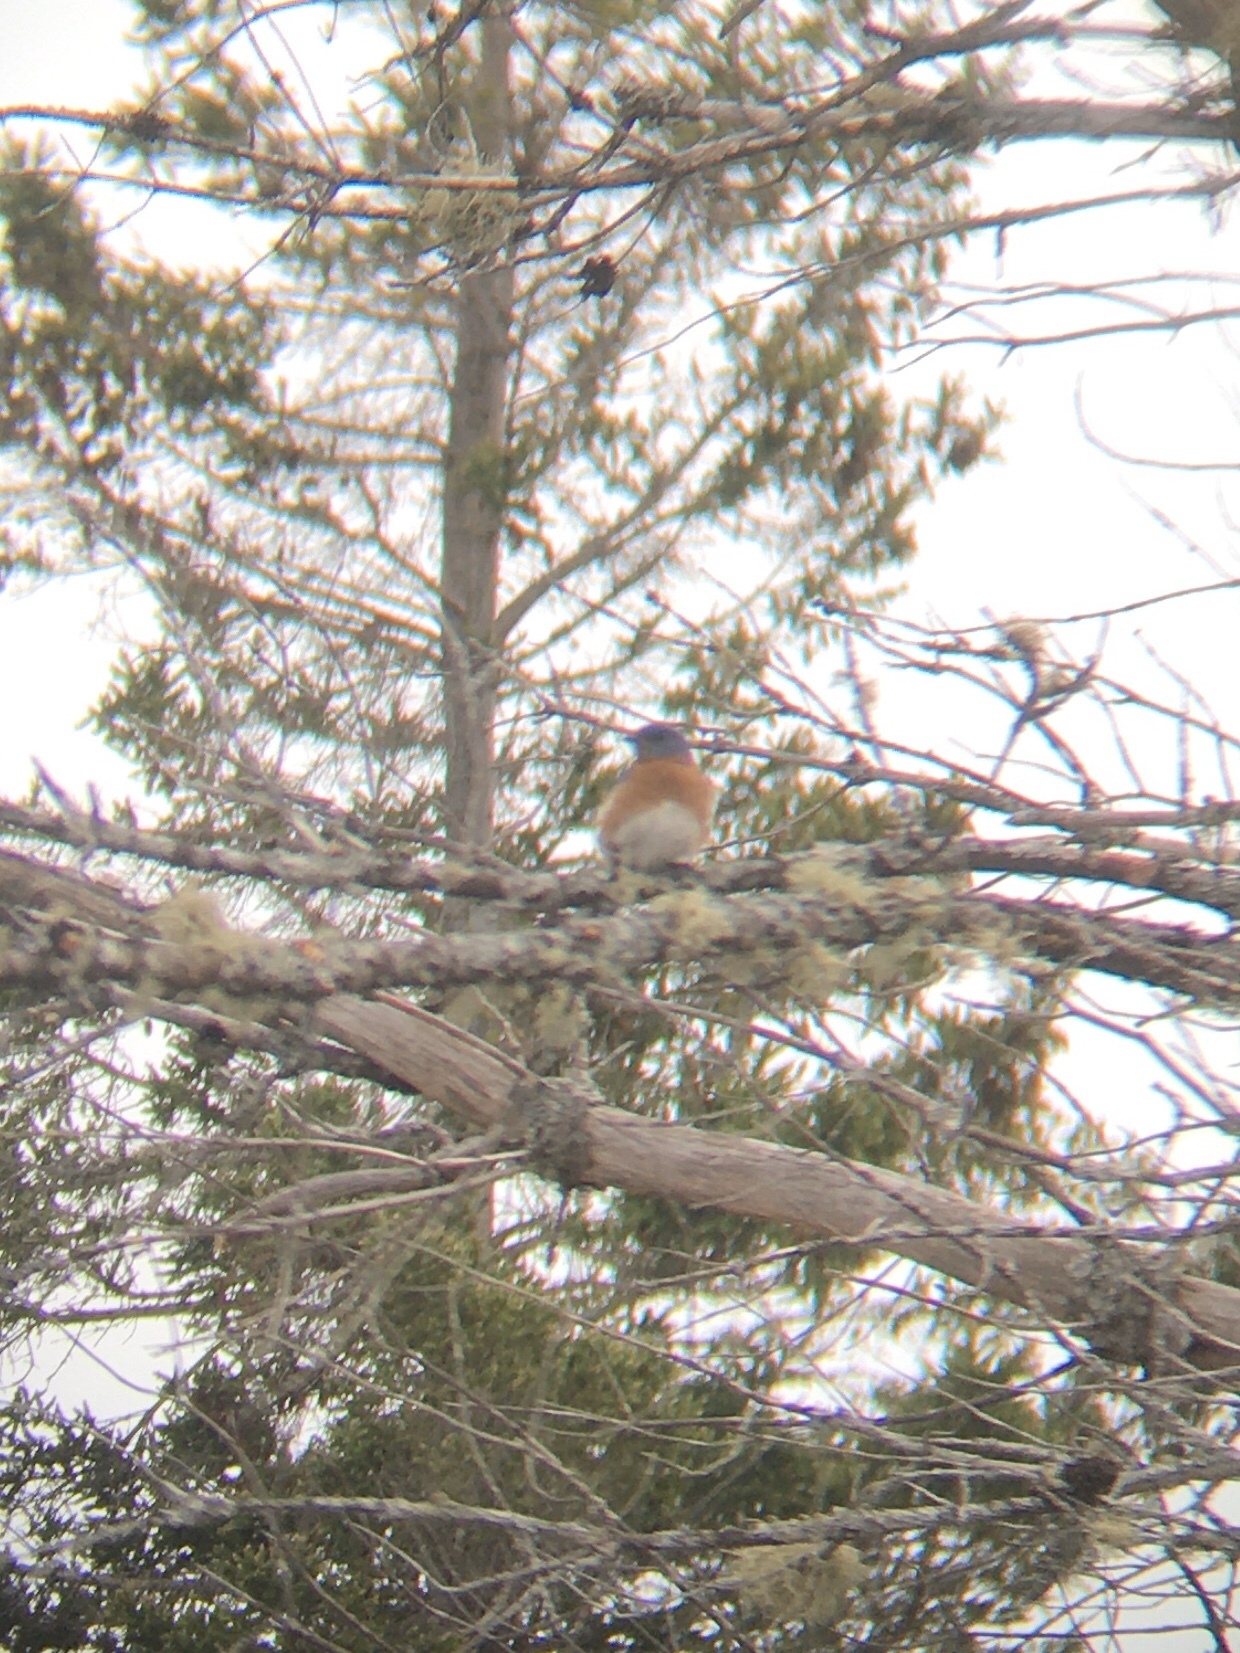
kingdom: Animalia
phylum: Chordata
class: Aves
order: Passeriformes
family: Turdidae
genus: Sialia
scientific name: Sialia sialis
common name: Eastern bluebird
